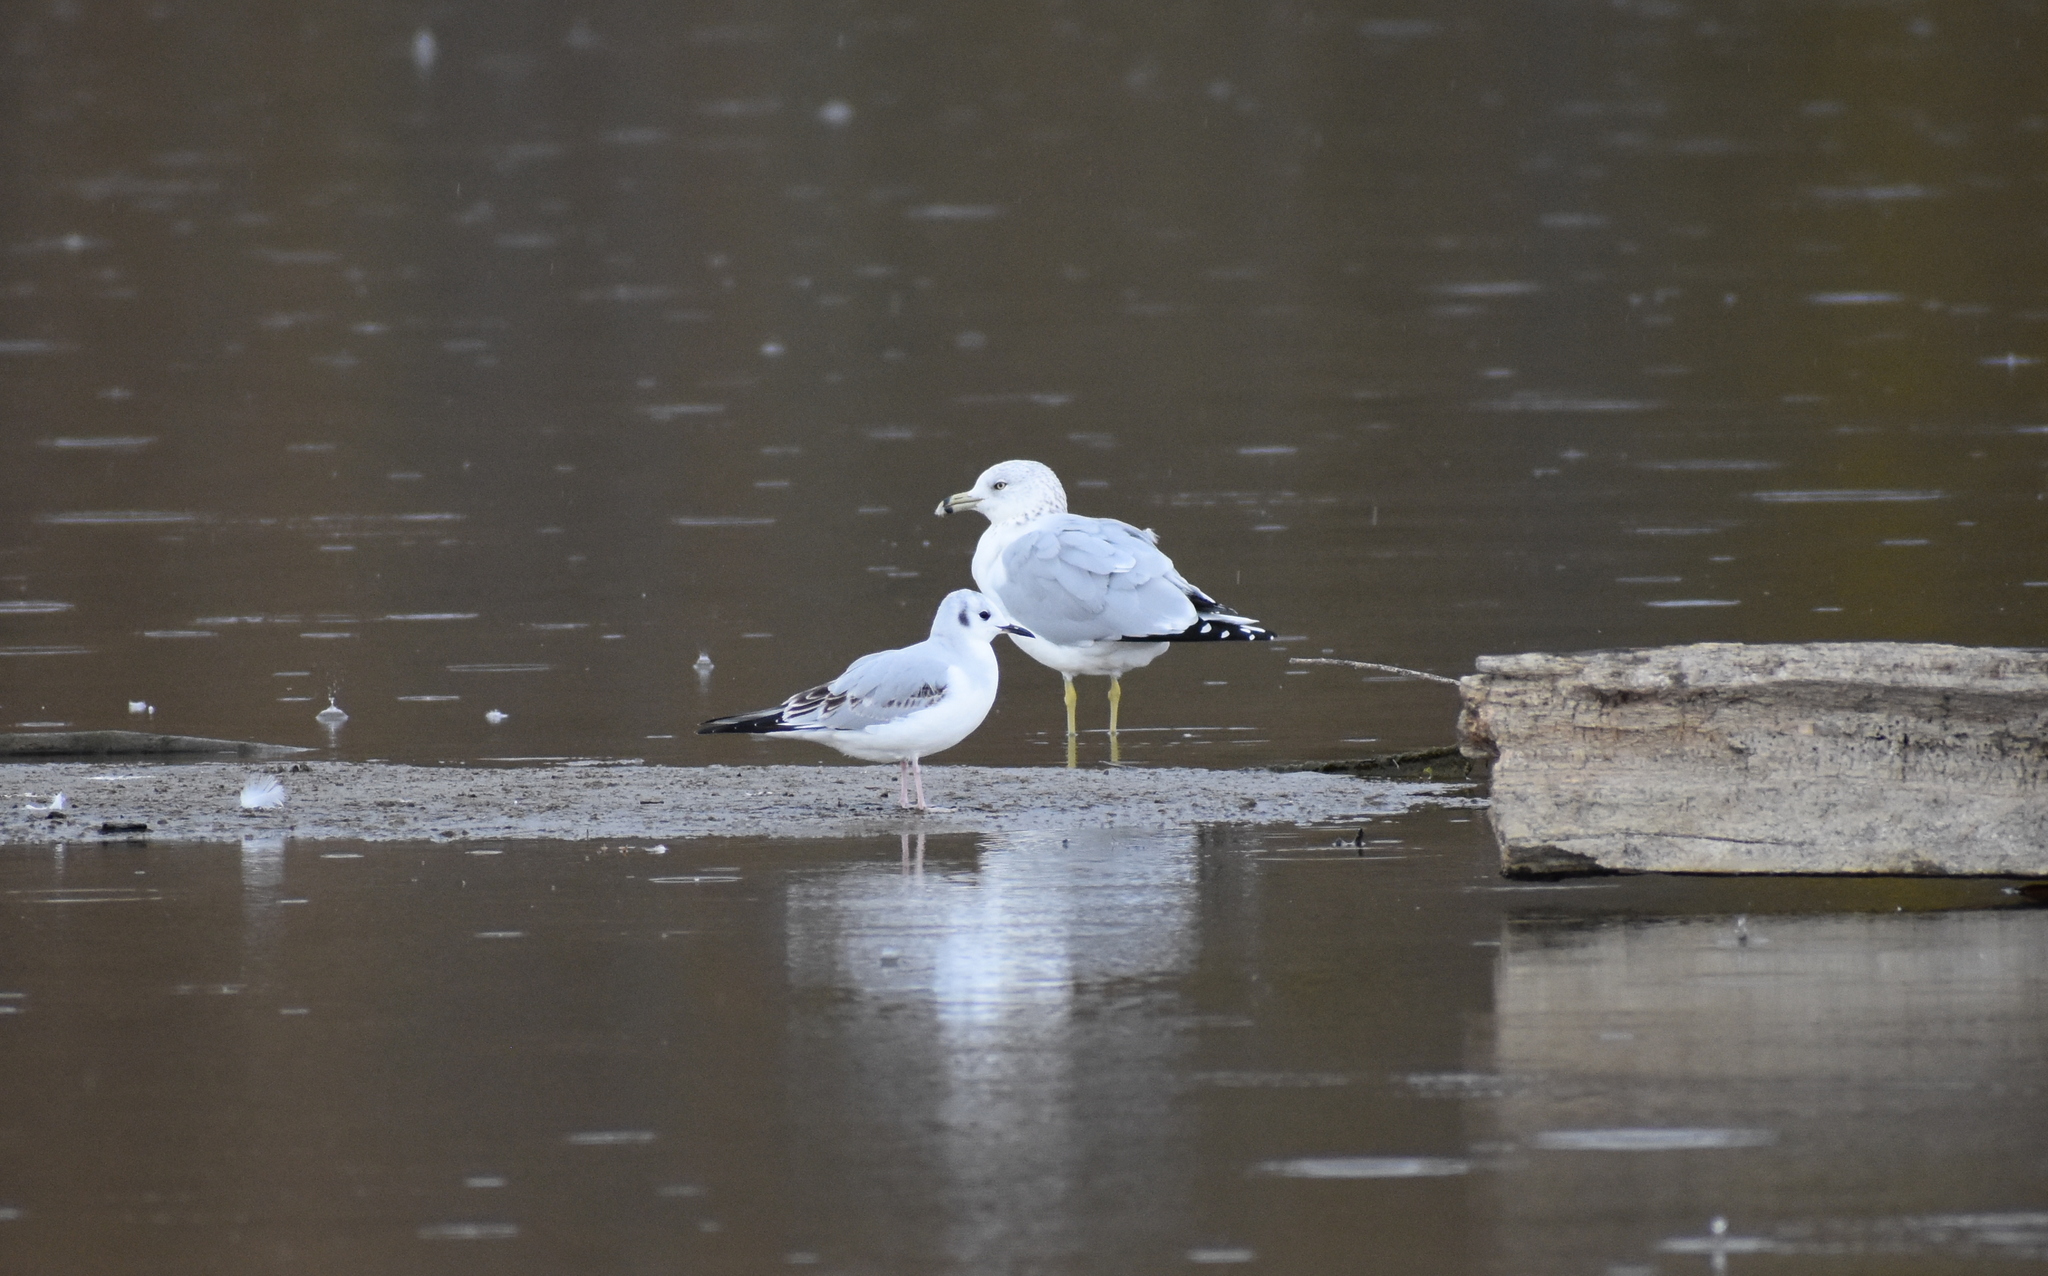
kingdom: Animalia
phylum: Chordata
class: Aves
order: Charadriiformes
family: Laridae
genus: Chroicocephalus
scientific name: Chroicocephalus philadelphia
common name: Bonaparte's gull
